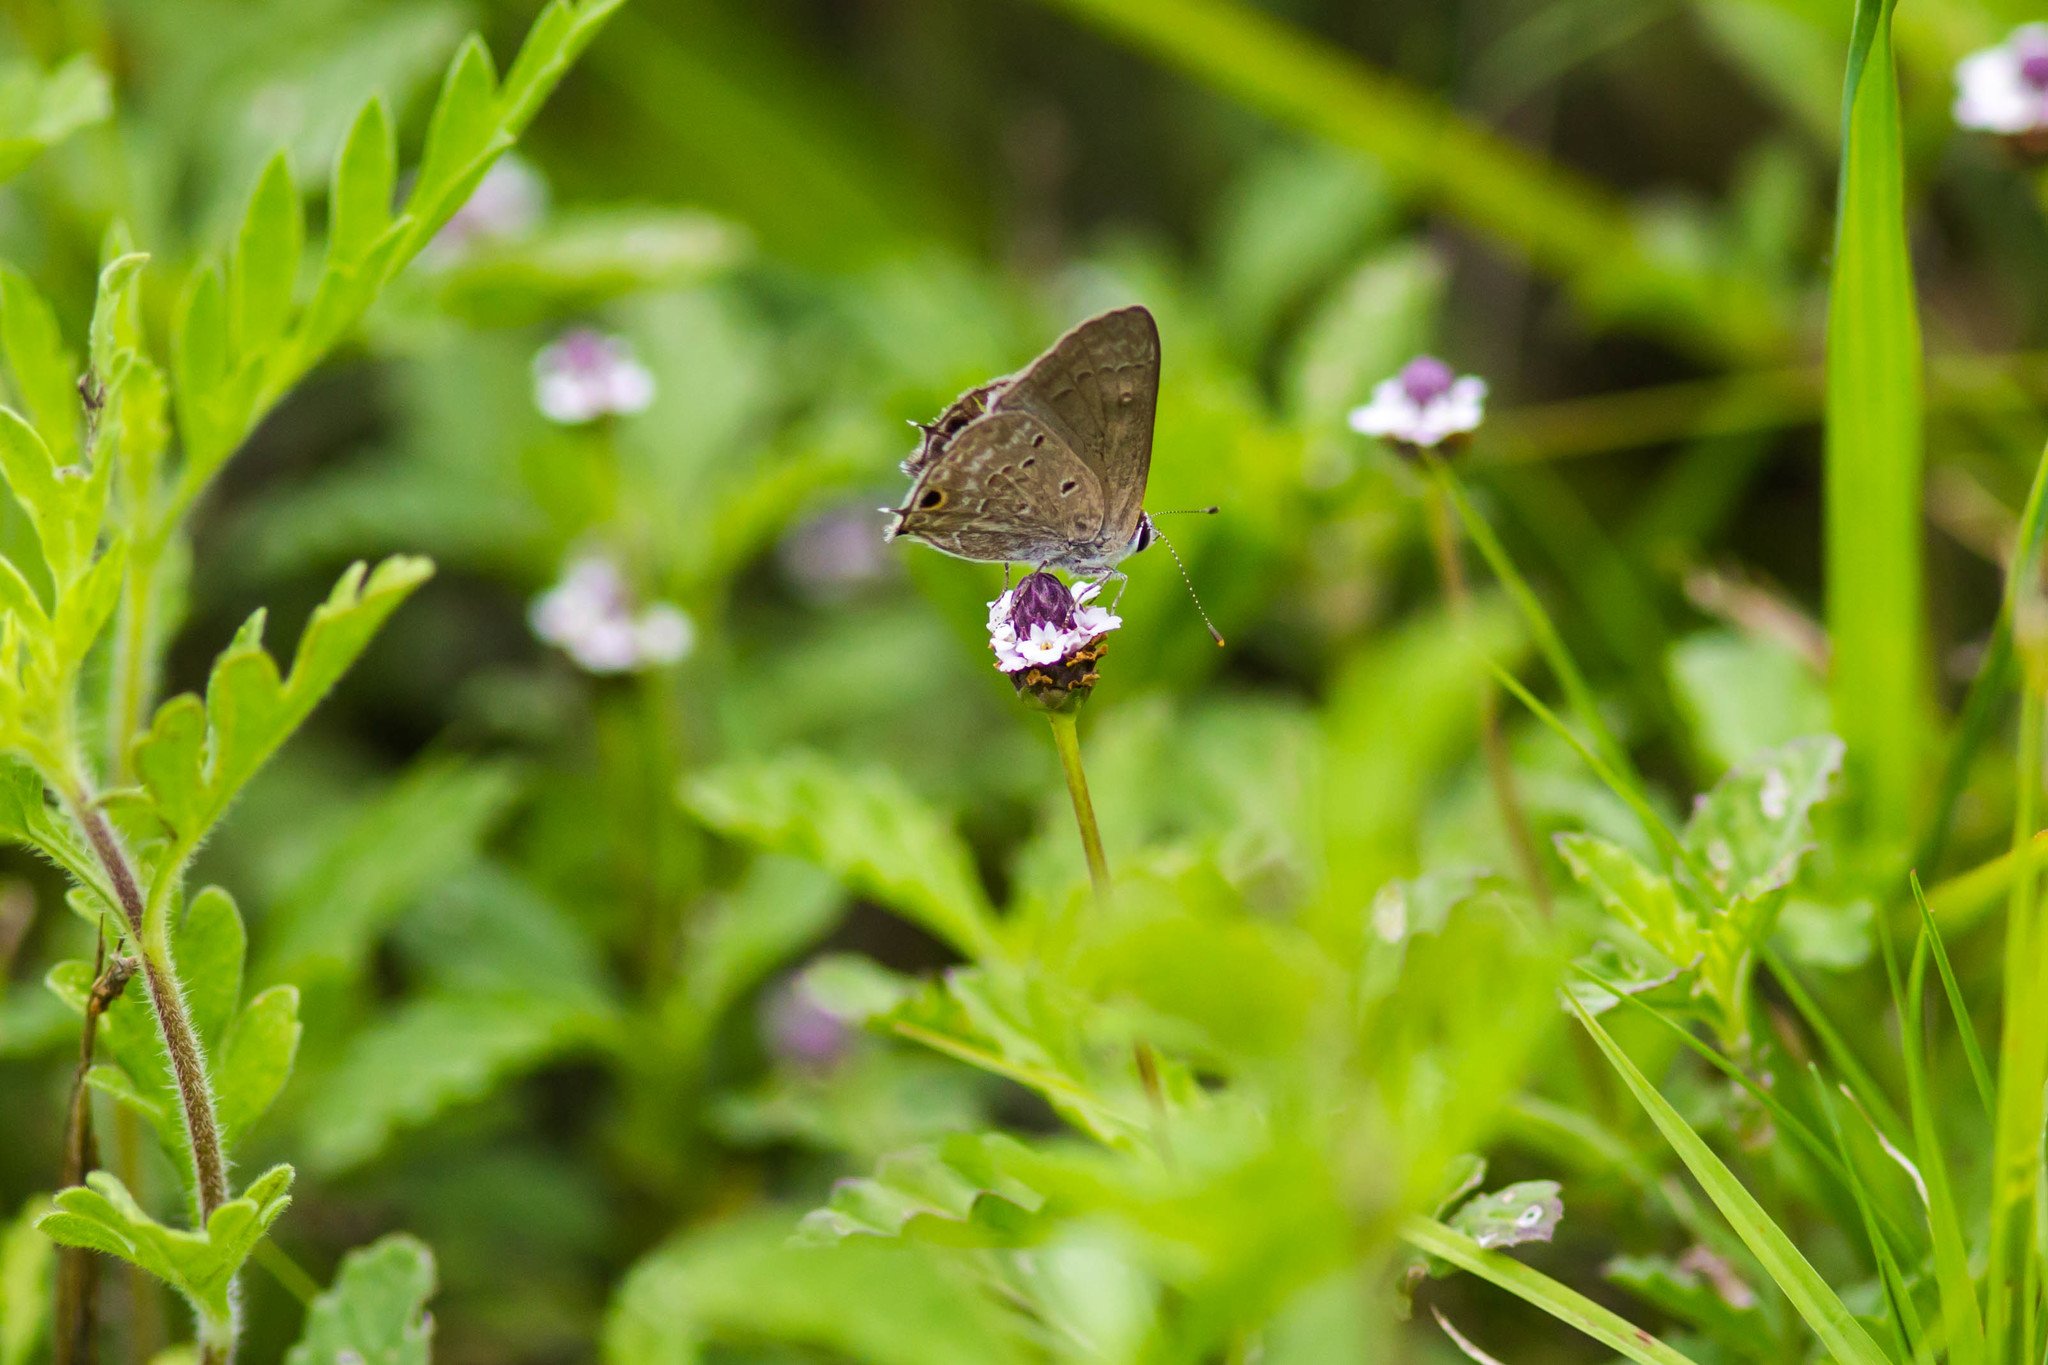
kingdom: Animalia
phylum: Arthropoda
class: Insecta
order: Lepidoptera
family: Lycaenidae
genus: Callicista
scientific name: Callicista columella
